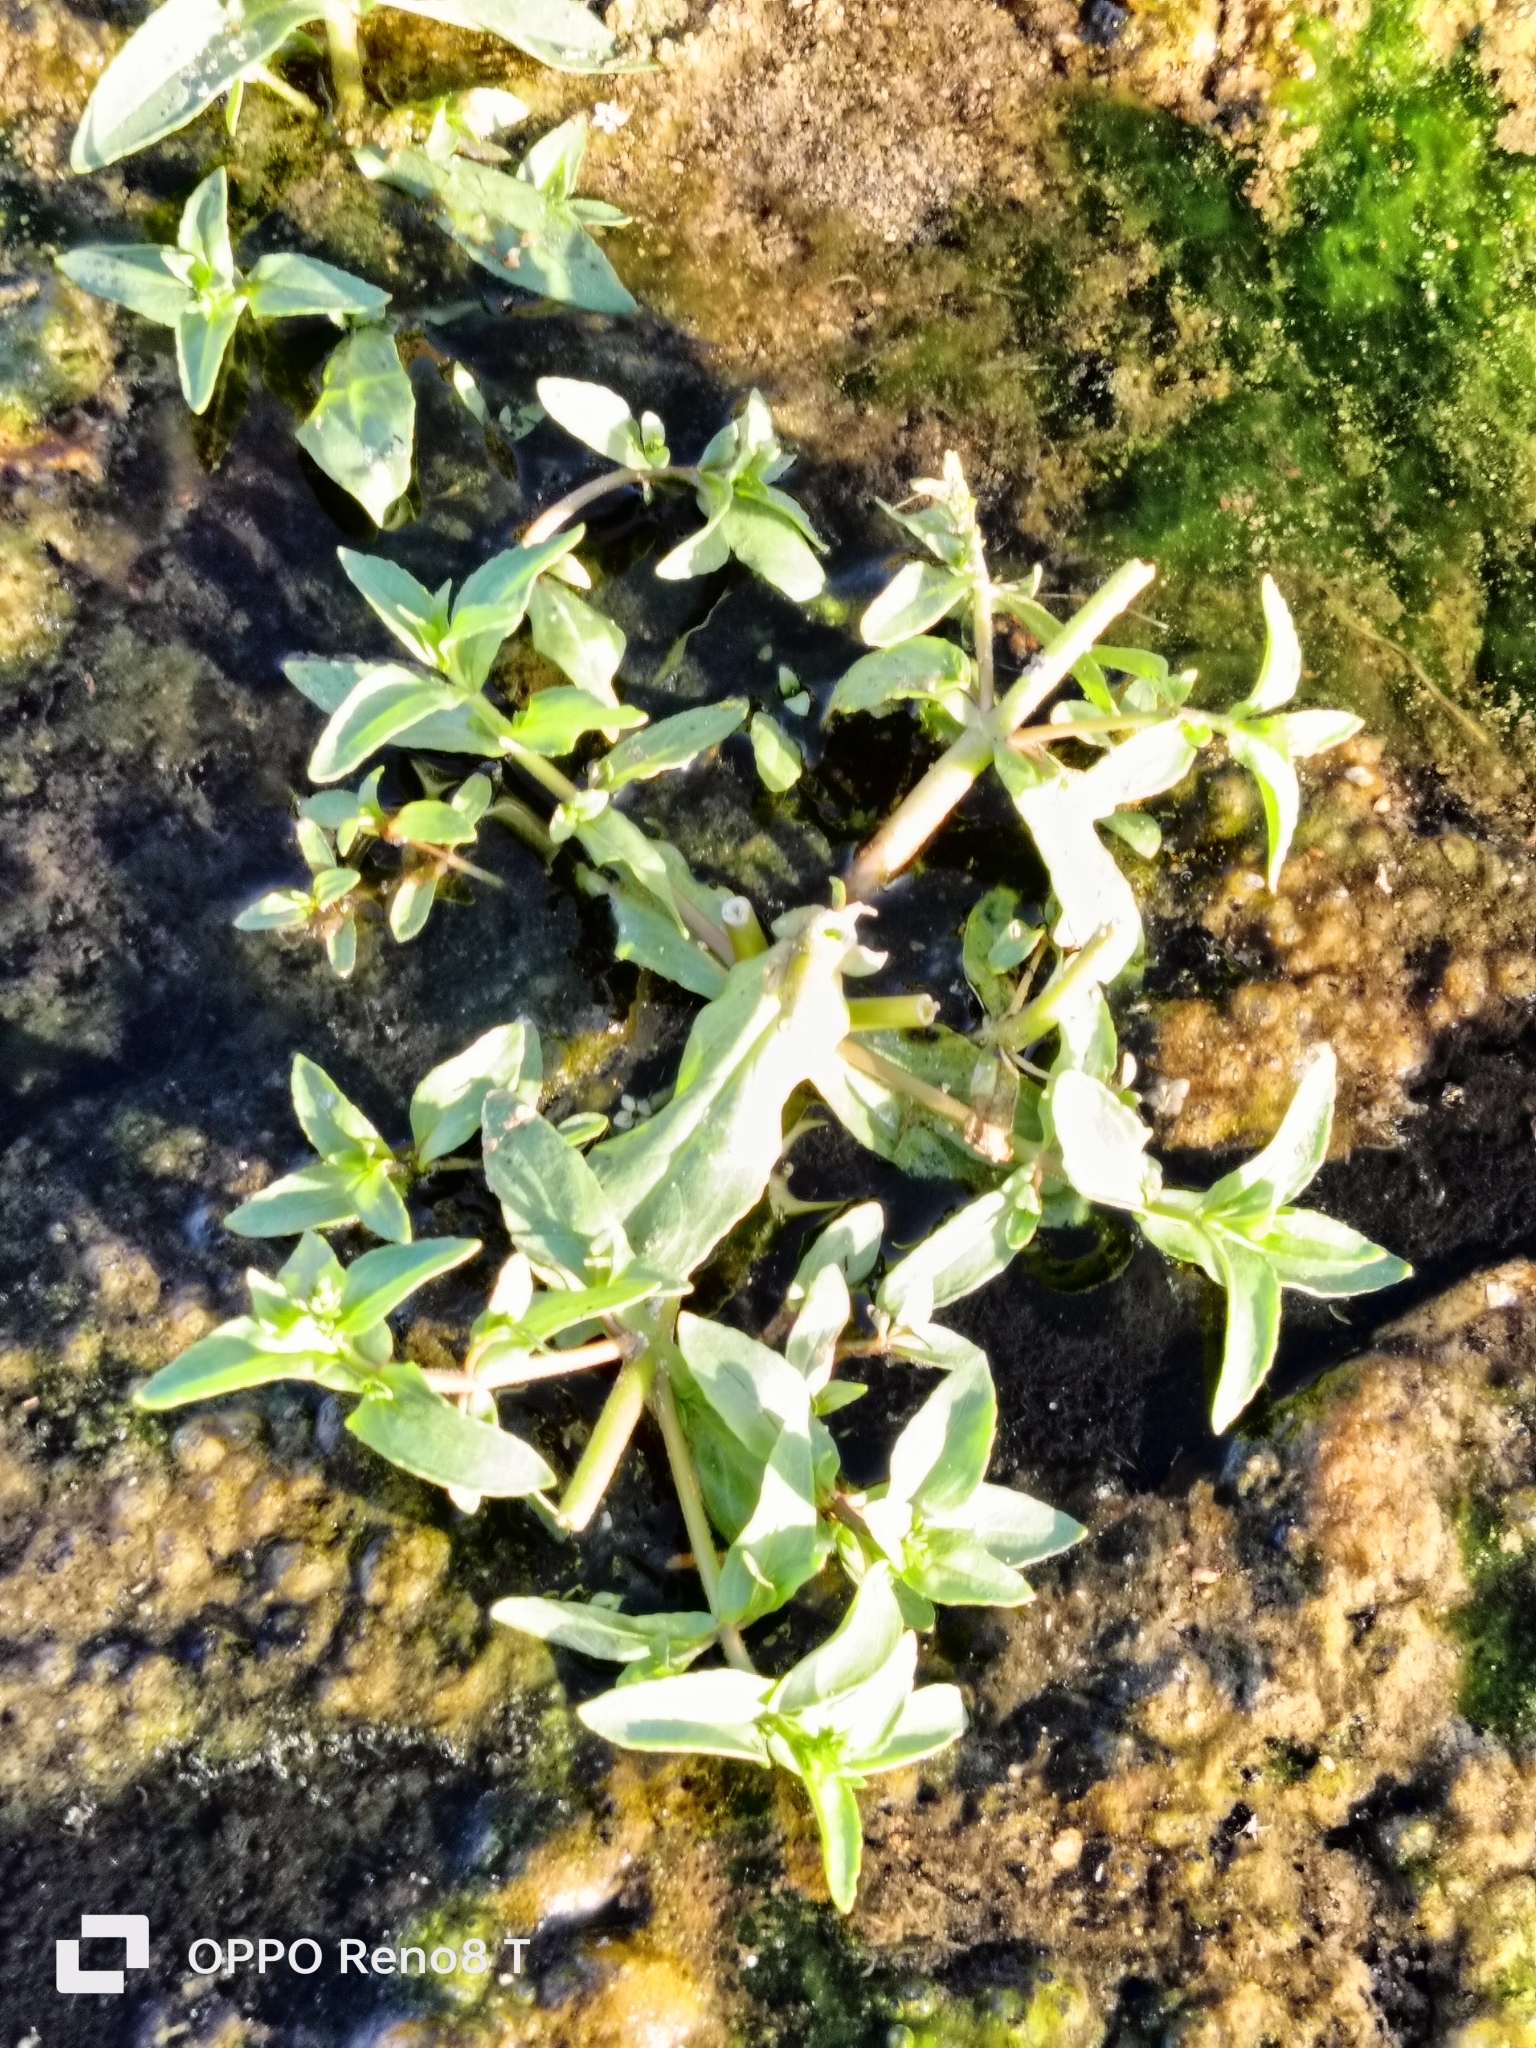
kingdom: Plantae
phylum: Tracheophyta
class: Magnoliopsida
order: Lamiales
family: Plantaginaceae
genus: Veronica
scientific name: Veronica catenata
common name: Pink water-speedwell
